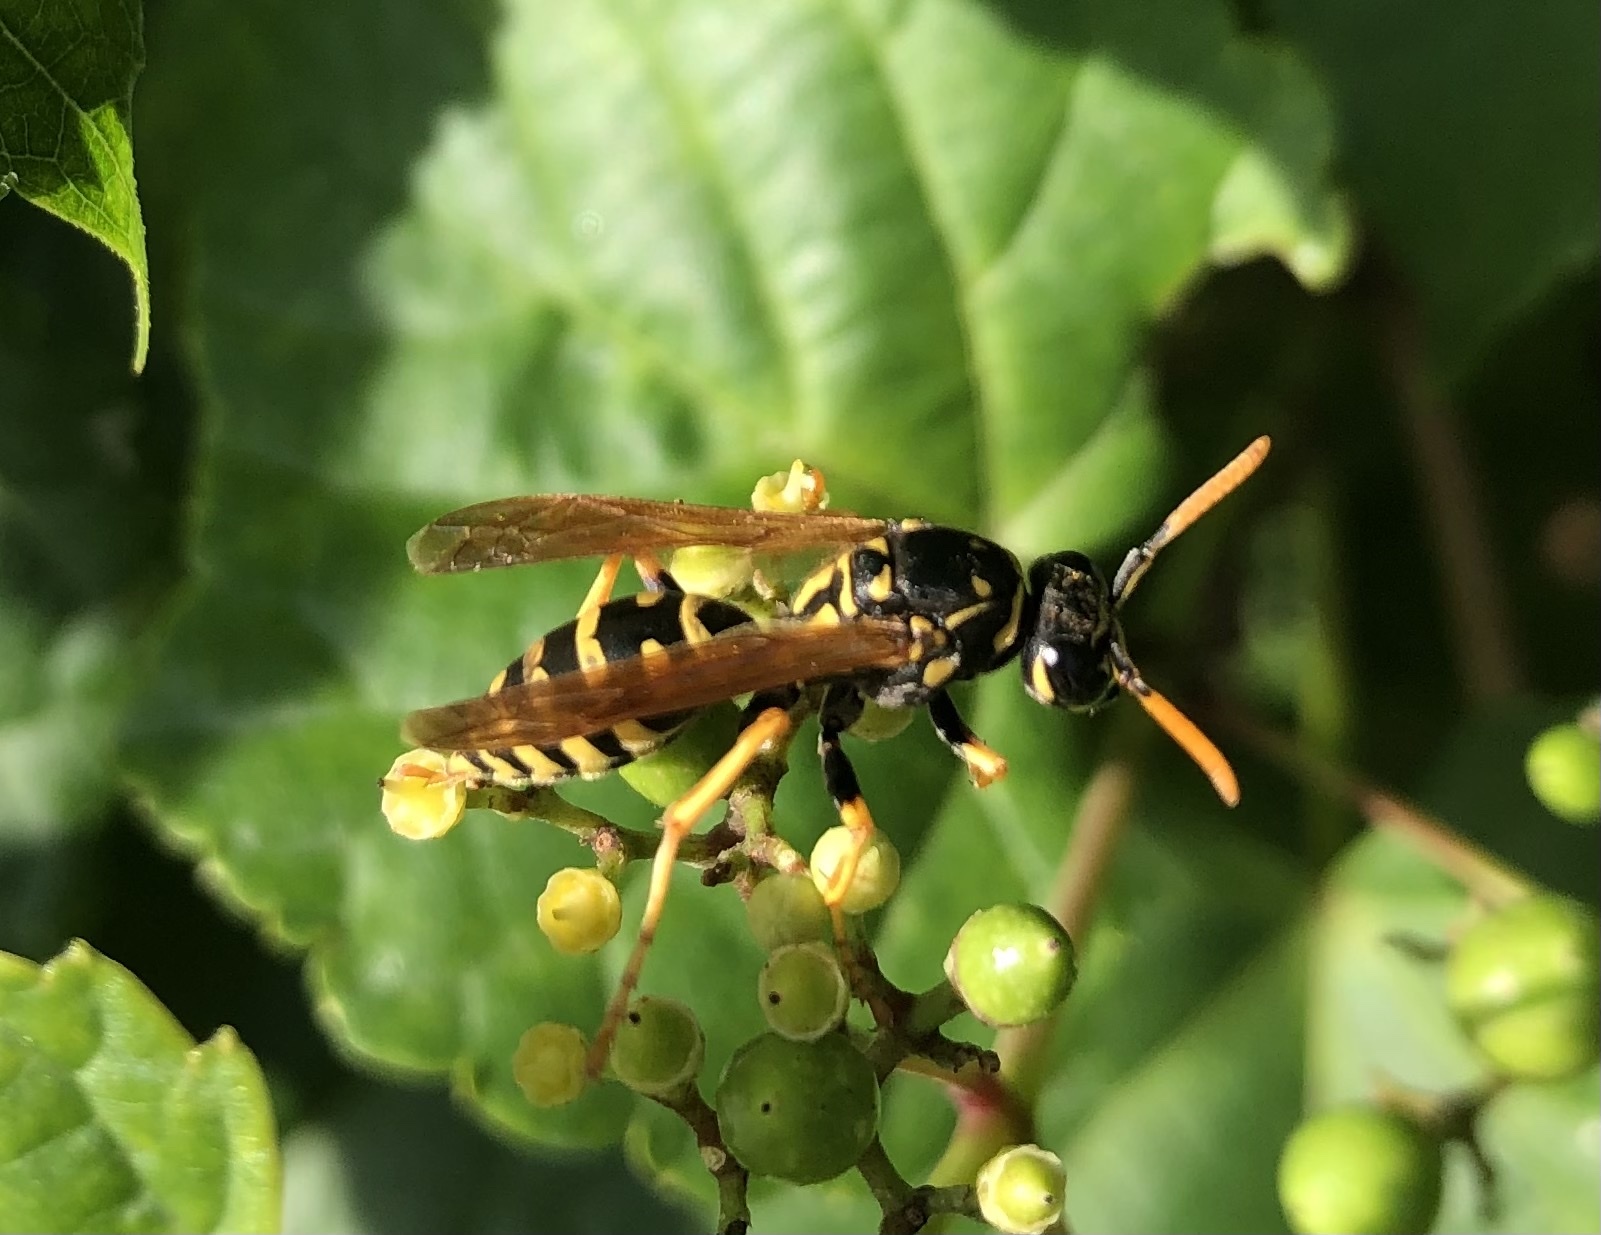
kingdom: Animalia
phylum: Arthropoda
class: Insecta
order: Hymenoptera
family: Eumenidae
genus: Polistes
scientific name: Polistes dominula
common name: Paper wasp
